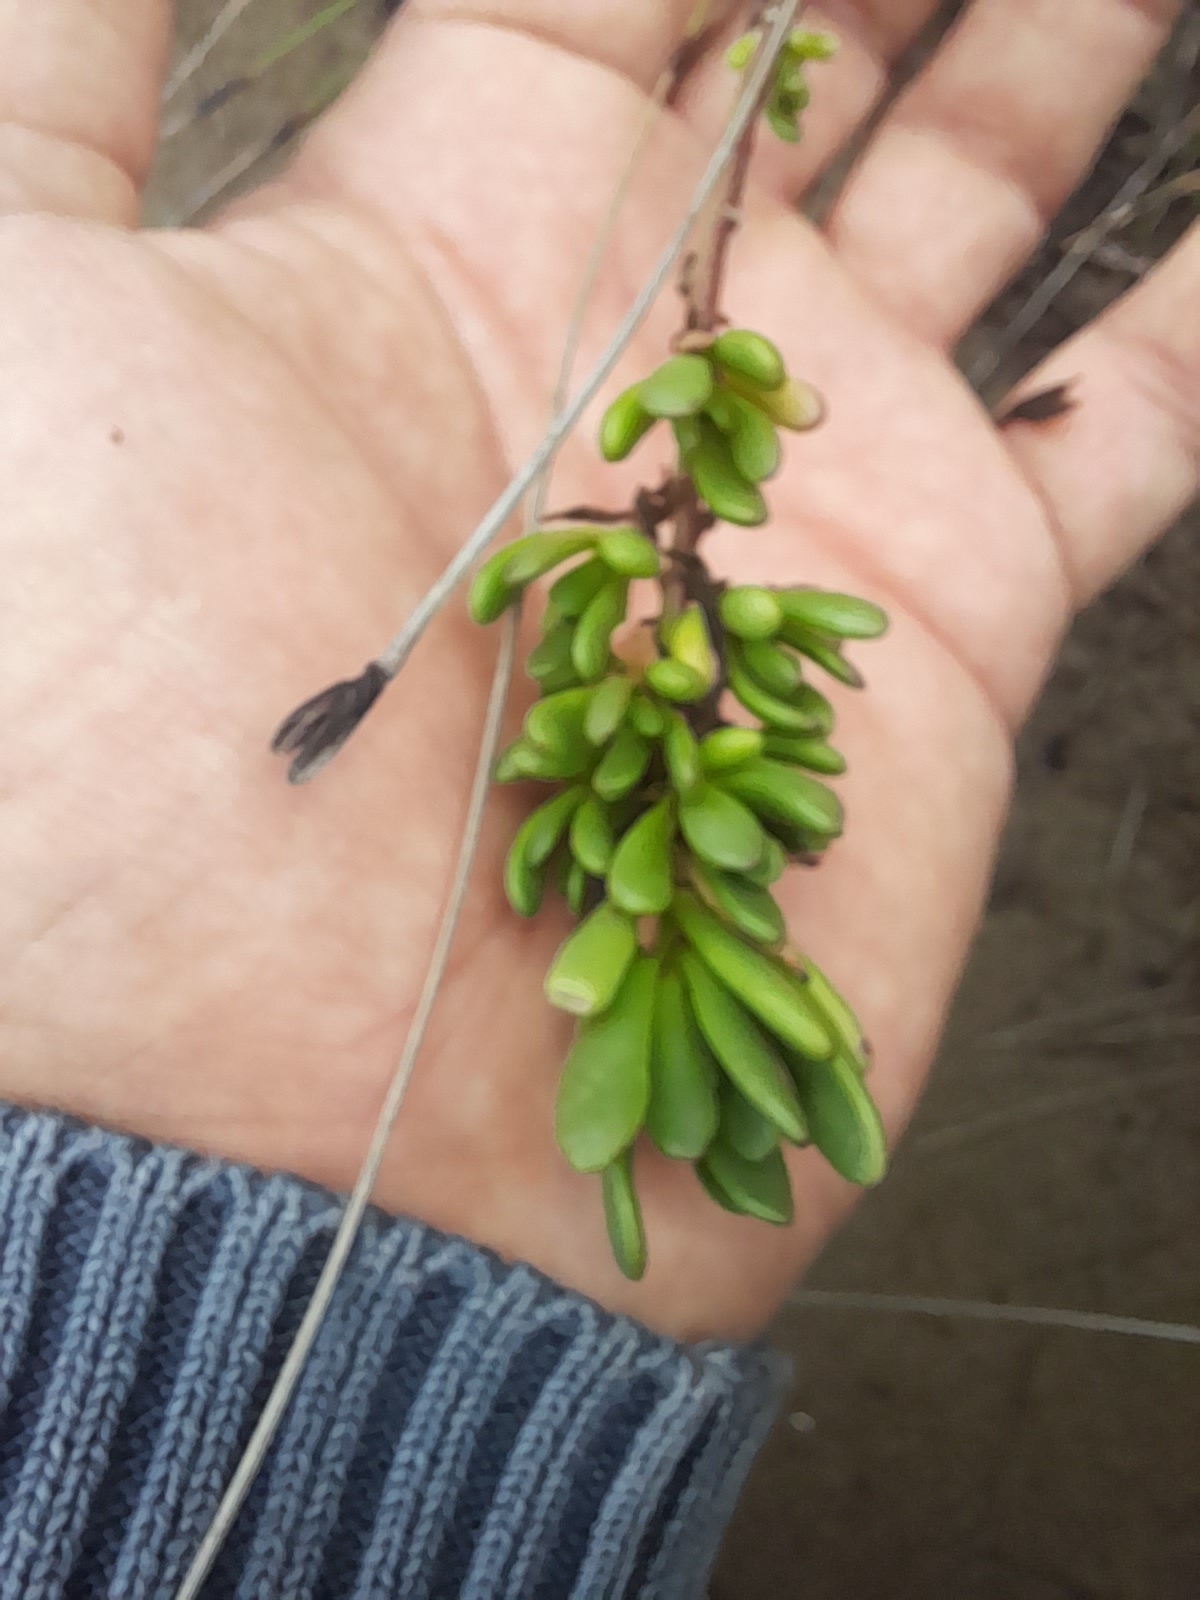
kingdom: Plantae
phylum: Tracheophyta
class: Magnoliopsida
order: Asterales
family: Asteraceae
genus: Limbarda
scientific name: Limbarda crithmoides
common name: Golden samphire
